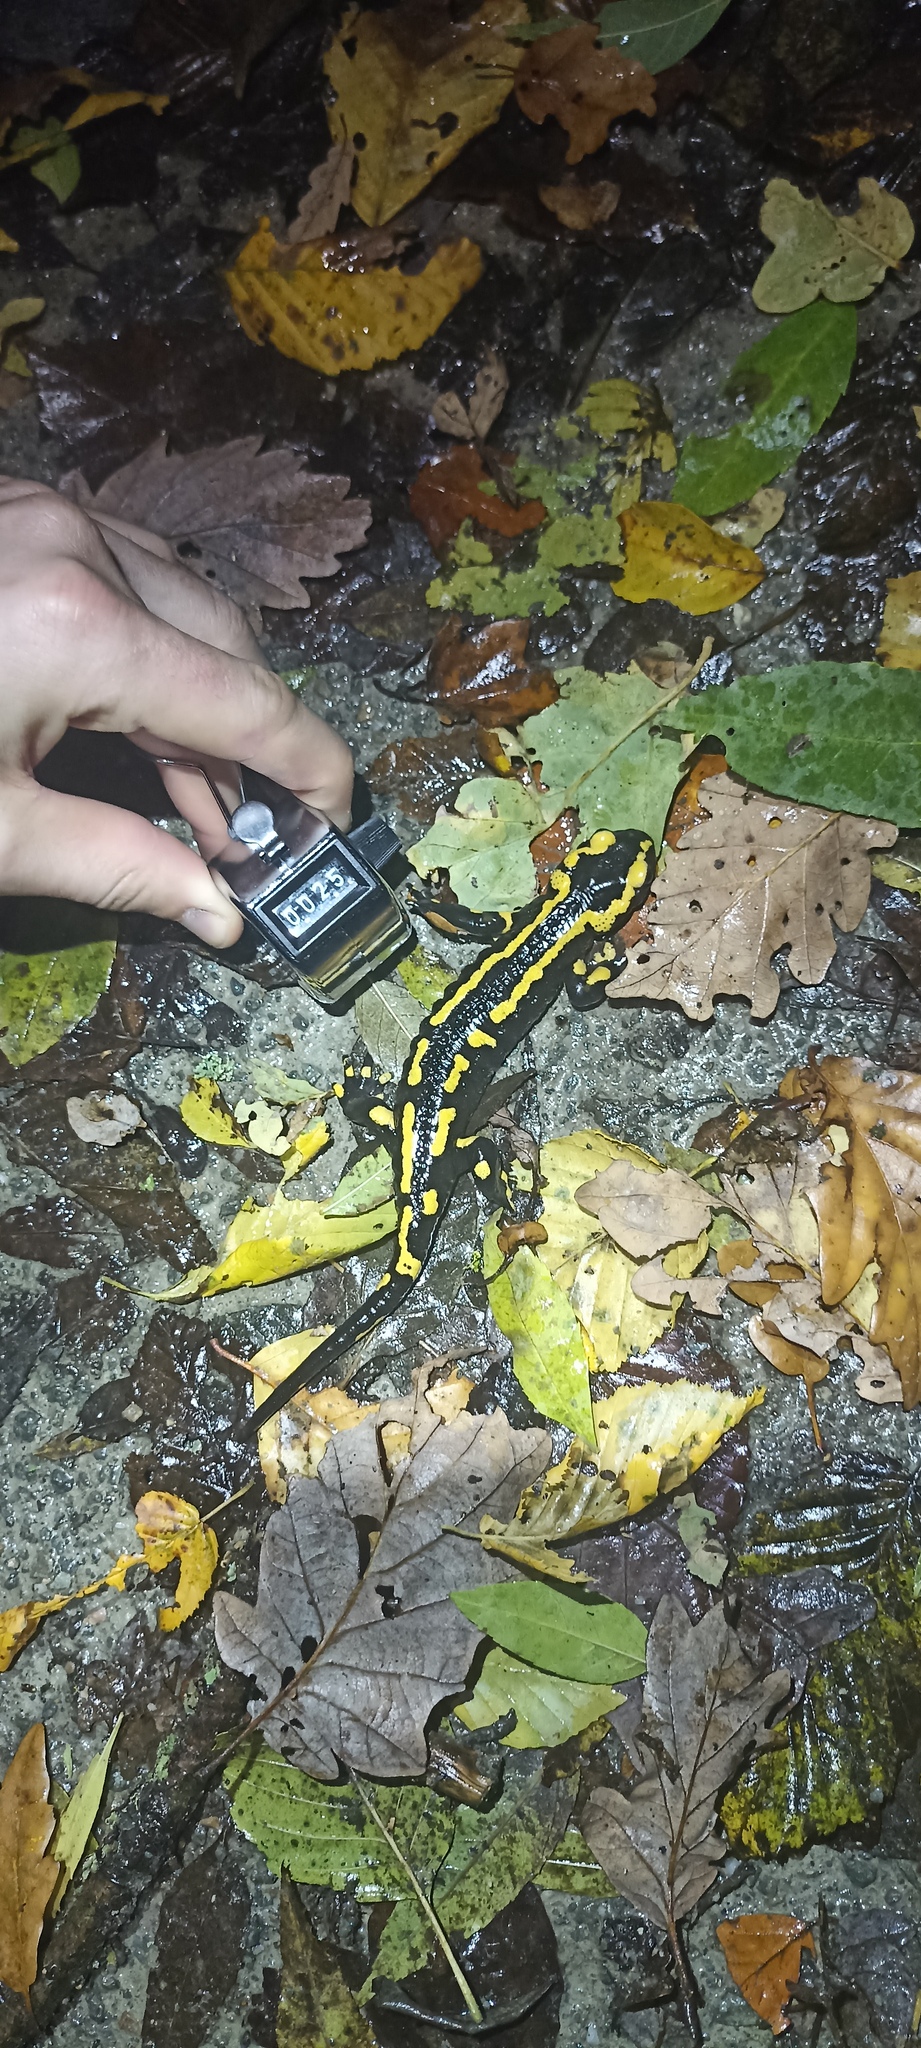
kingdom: Animalia
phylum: Chordata
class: Amphibia
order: Caudata
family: Salamandridae
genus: Salamandra
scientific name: Salamandra salamandra
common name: Fire salamander
